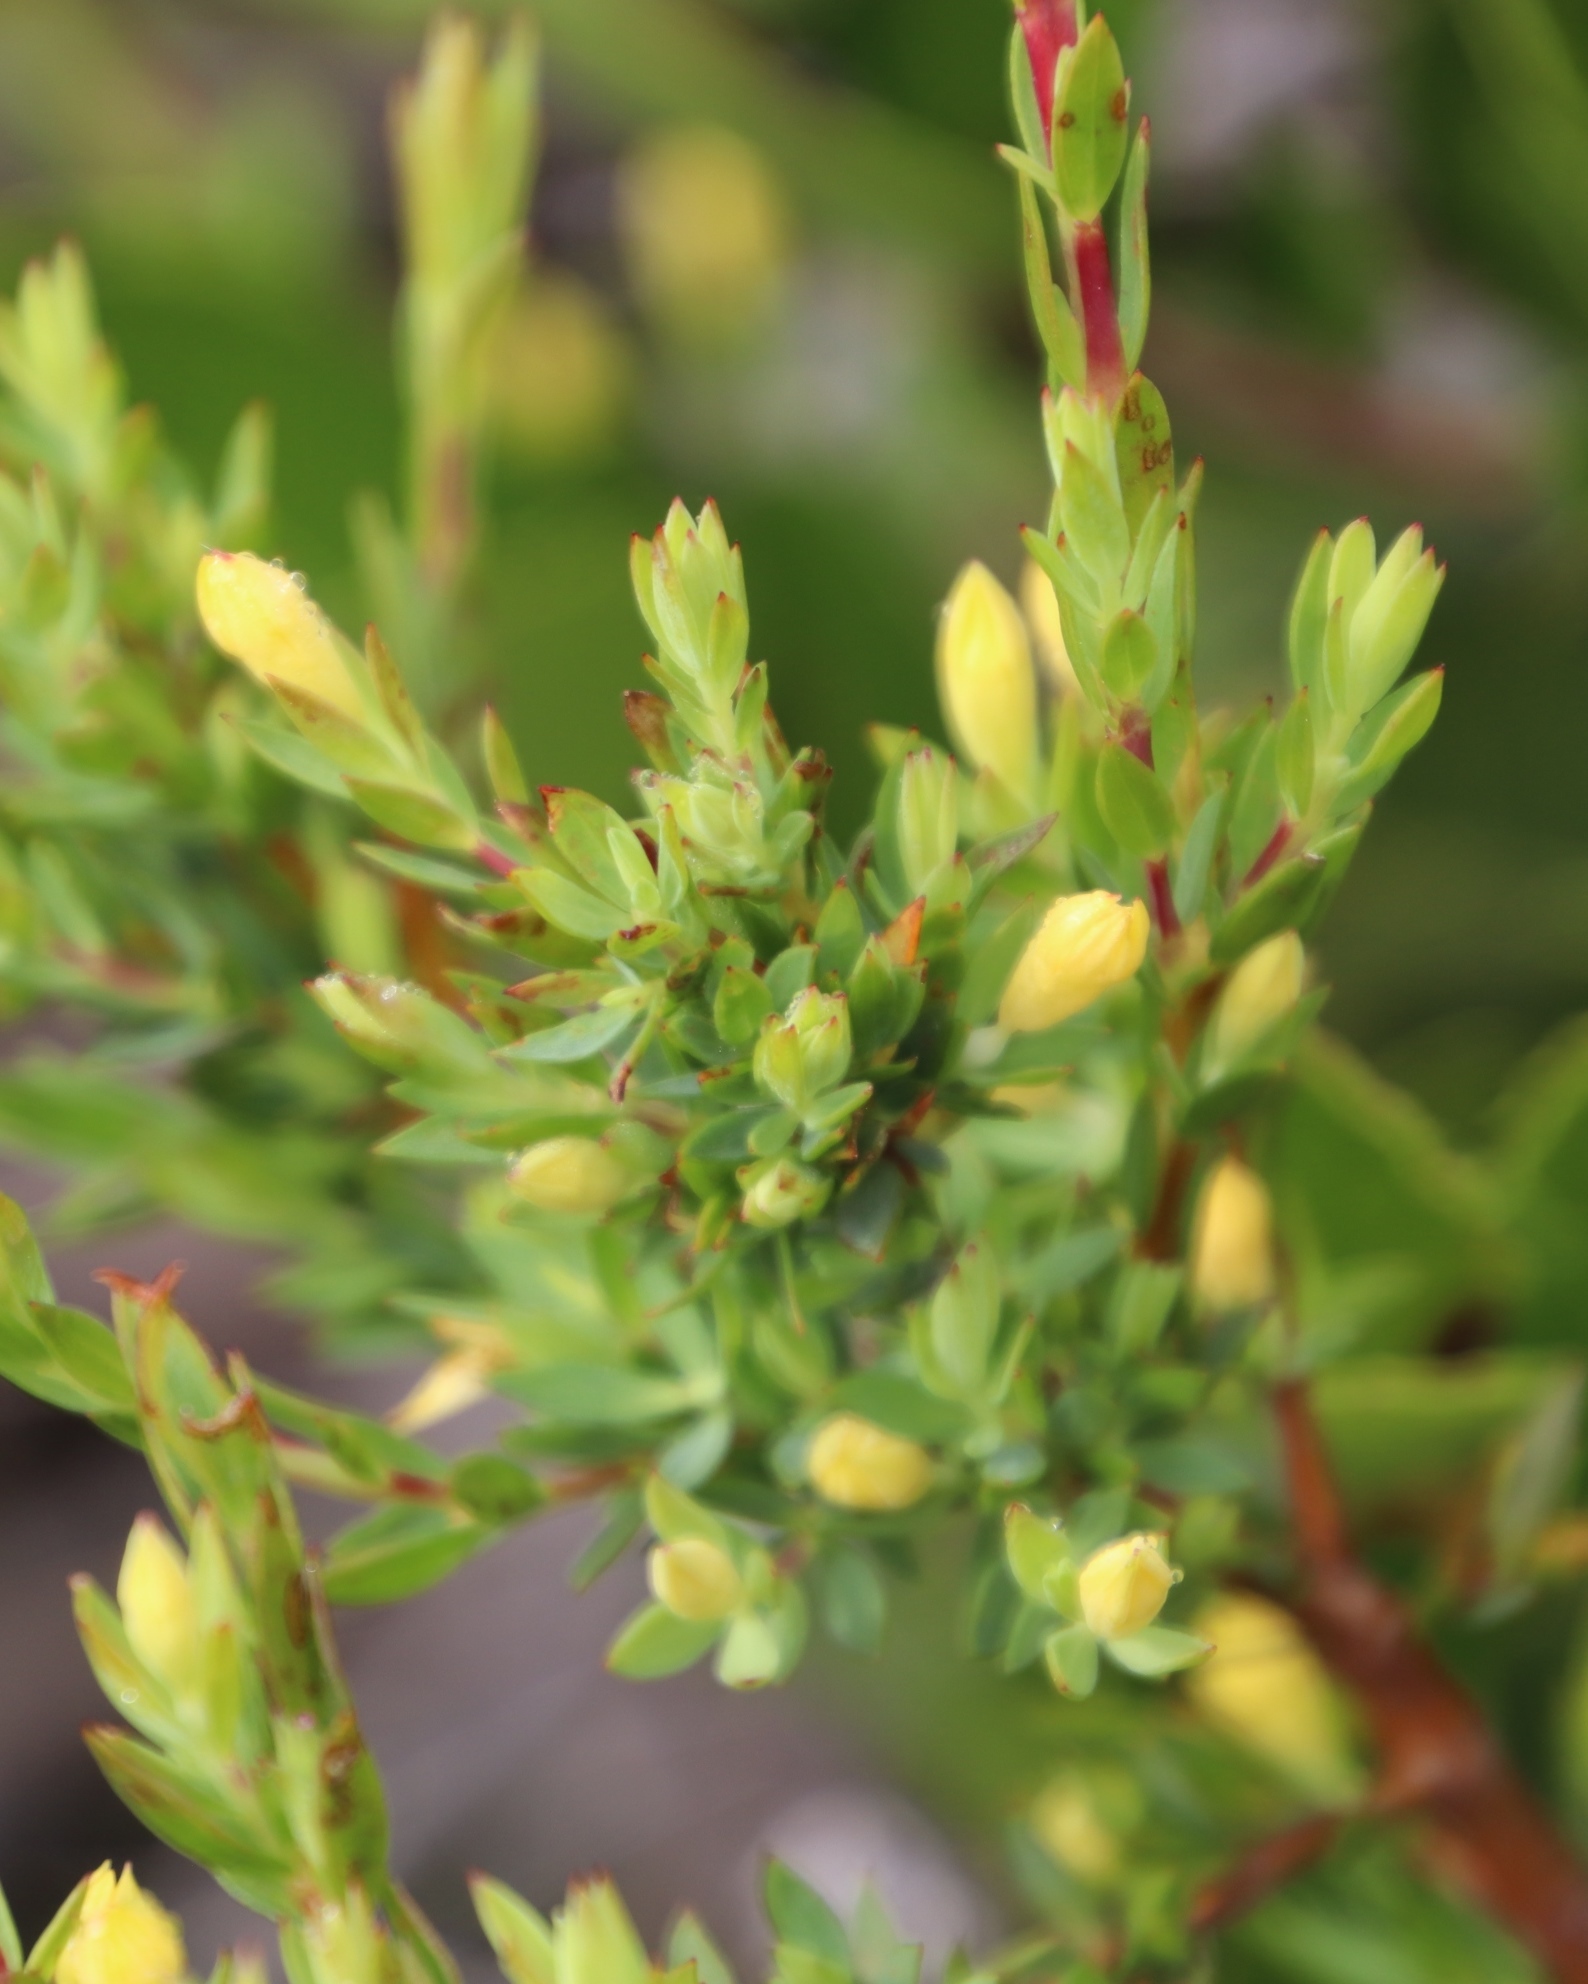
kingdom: Plantae
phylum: Tracheophyta
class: Magnoliopsida
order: Malvales
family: Thymelaeaceae
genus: Gnidia
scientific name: Gnidia juniperifolia
